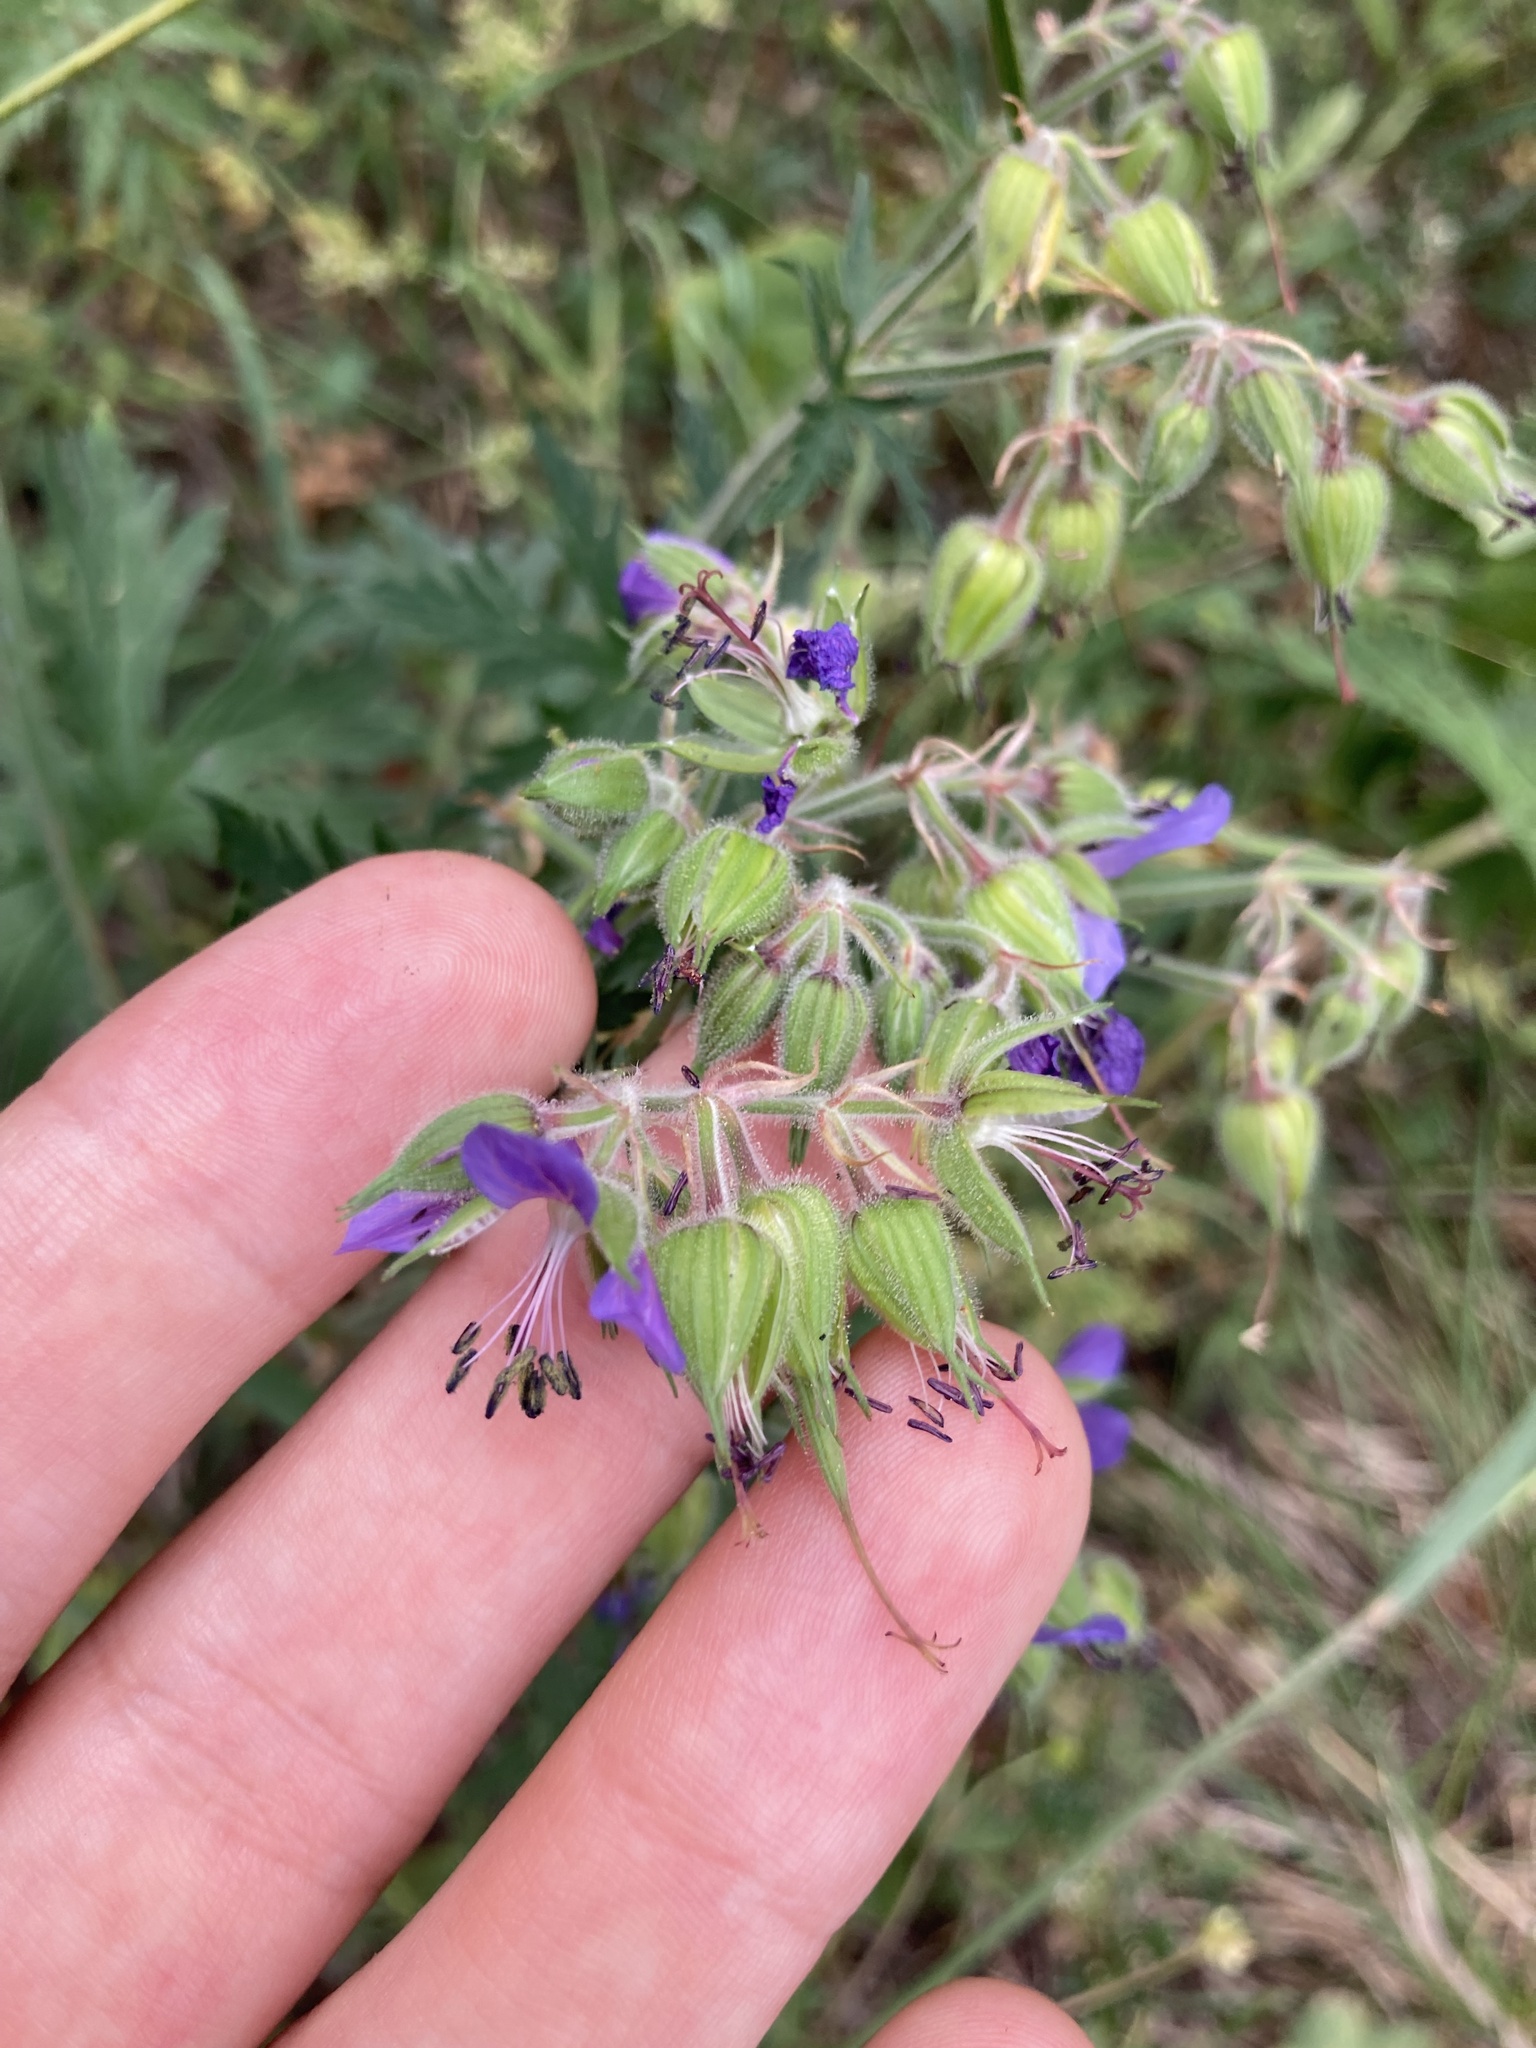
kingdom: Plantae
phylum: Tracheophyta
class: Magnoliopsida
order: Geraniales
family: Geraniaceae
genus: Geranium
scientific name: Geranium sylvaticum
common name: Wood crane's-bill
